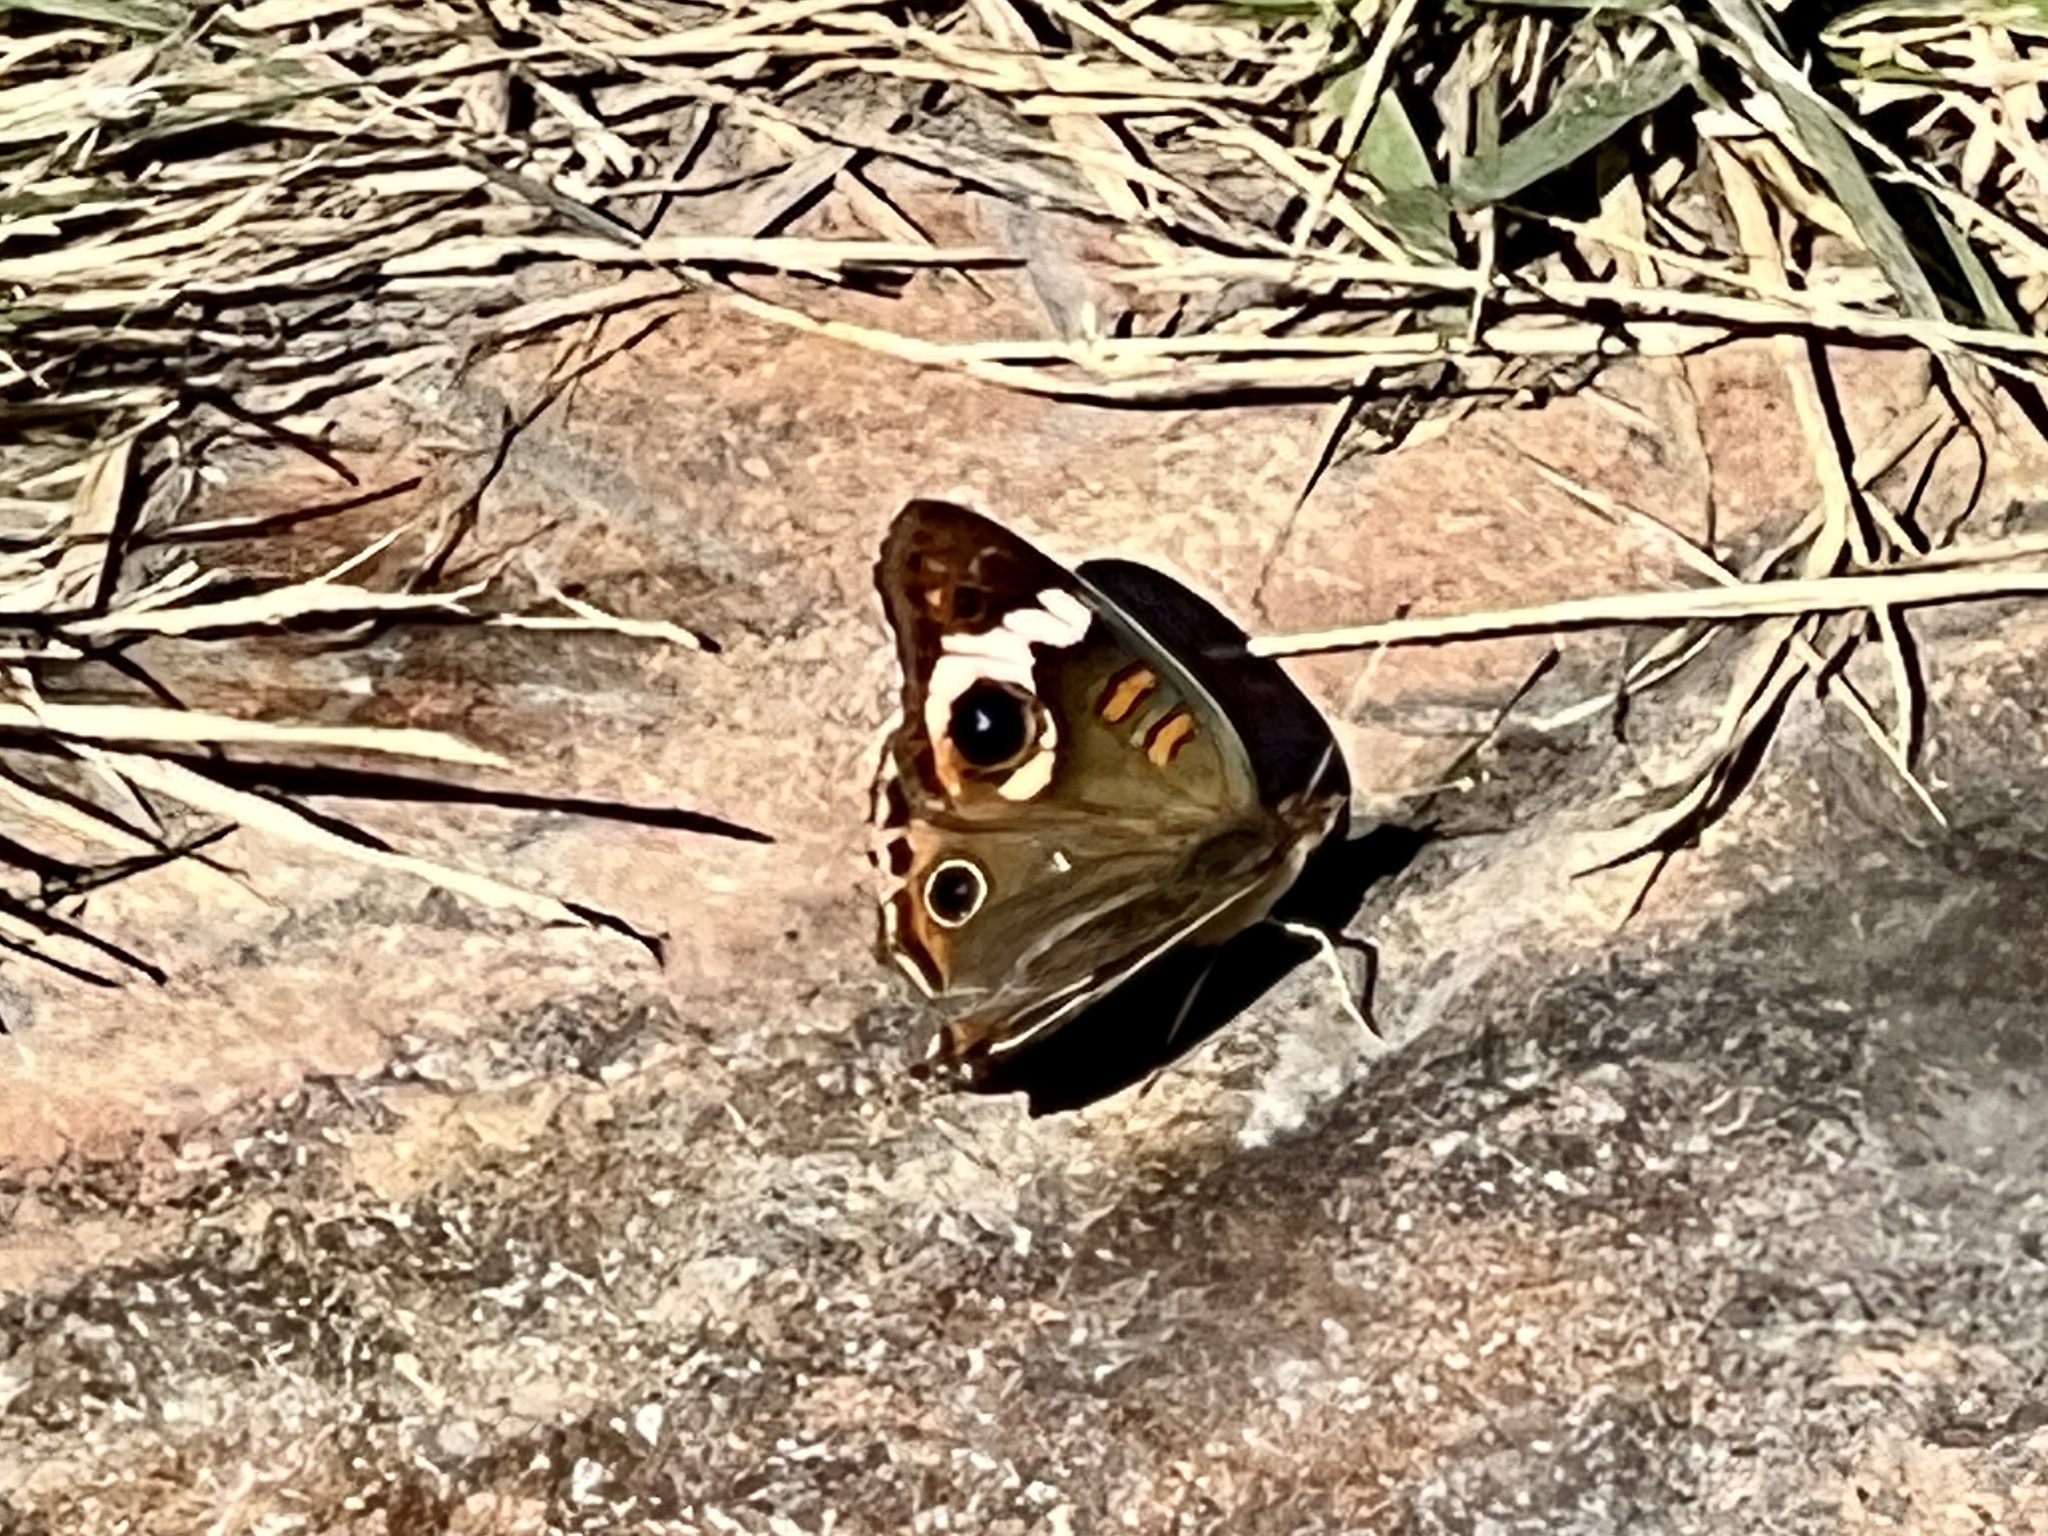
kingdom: Animalia
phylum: Arthropoda
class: Insecta
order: Lepidoptera
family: Nymphalidae
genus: Junonia
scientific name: Junonia coenia
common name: Common buckeye
